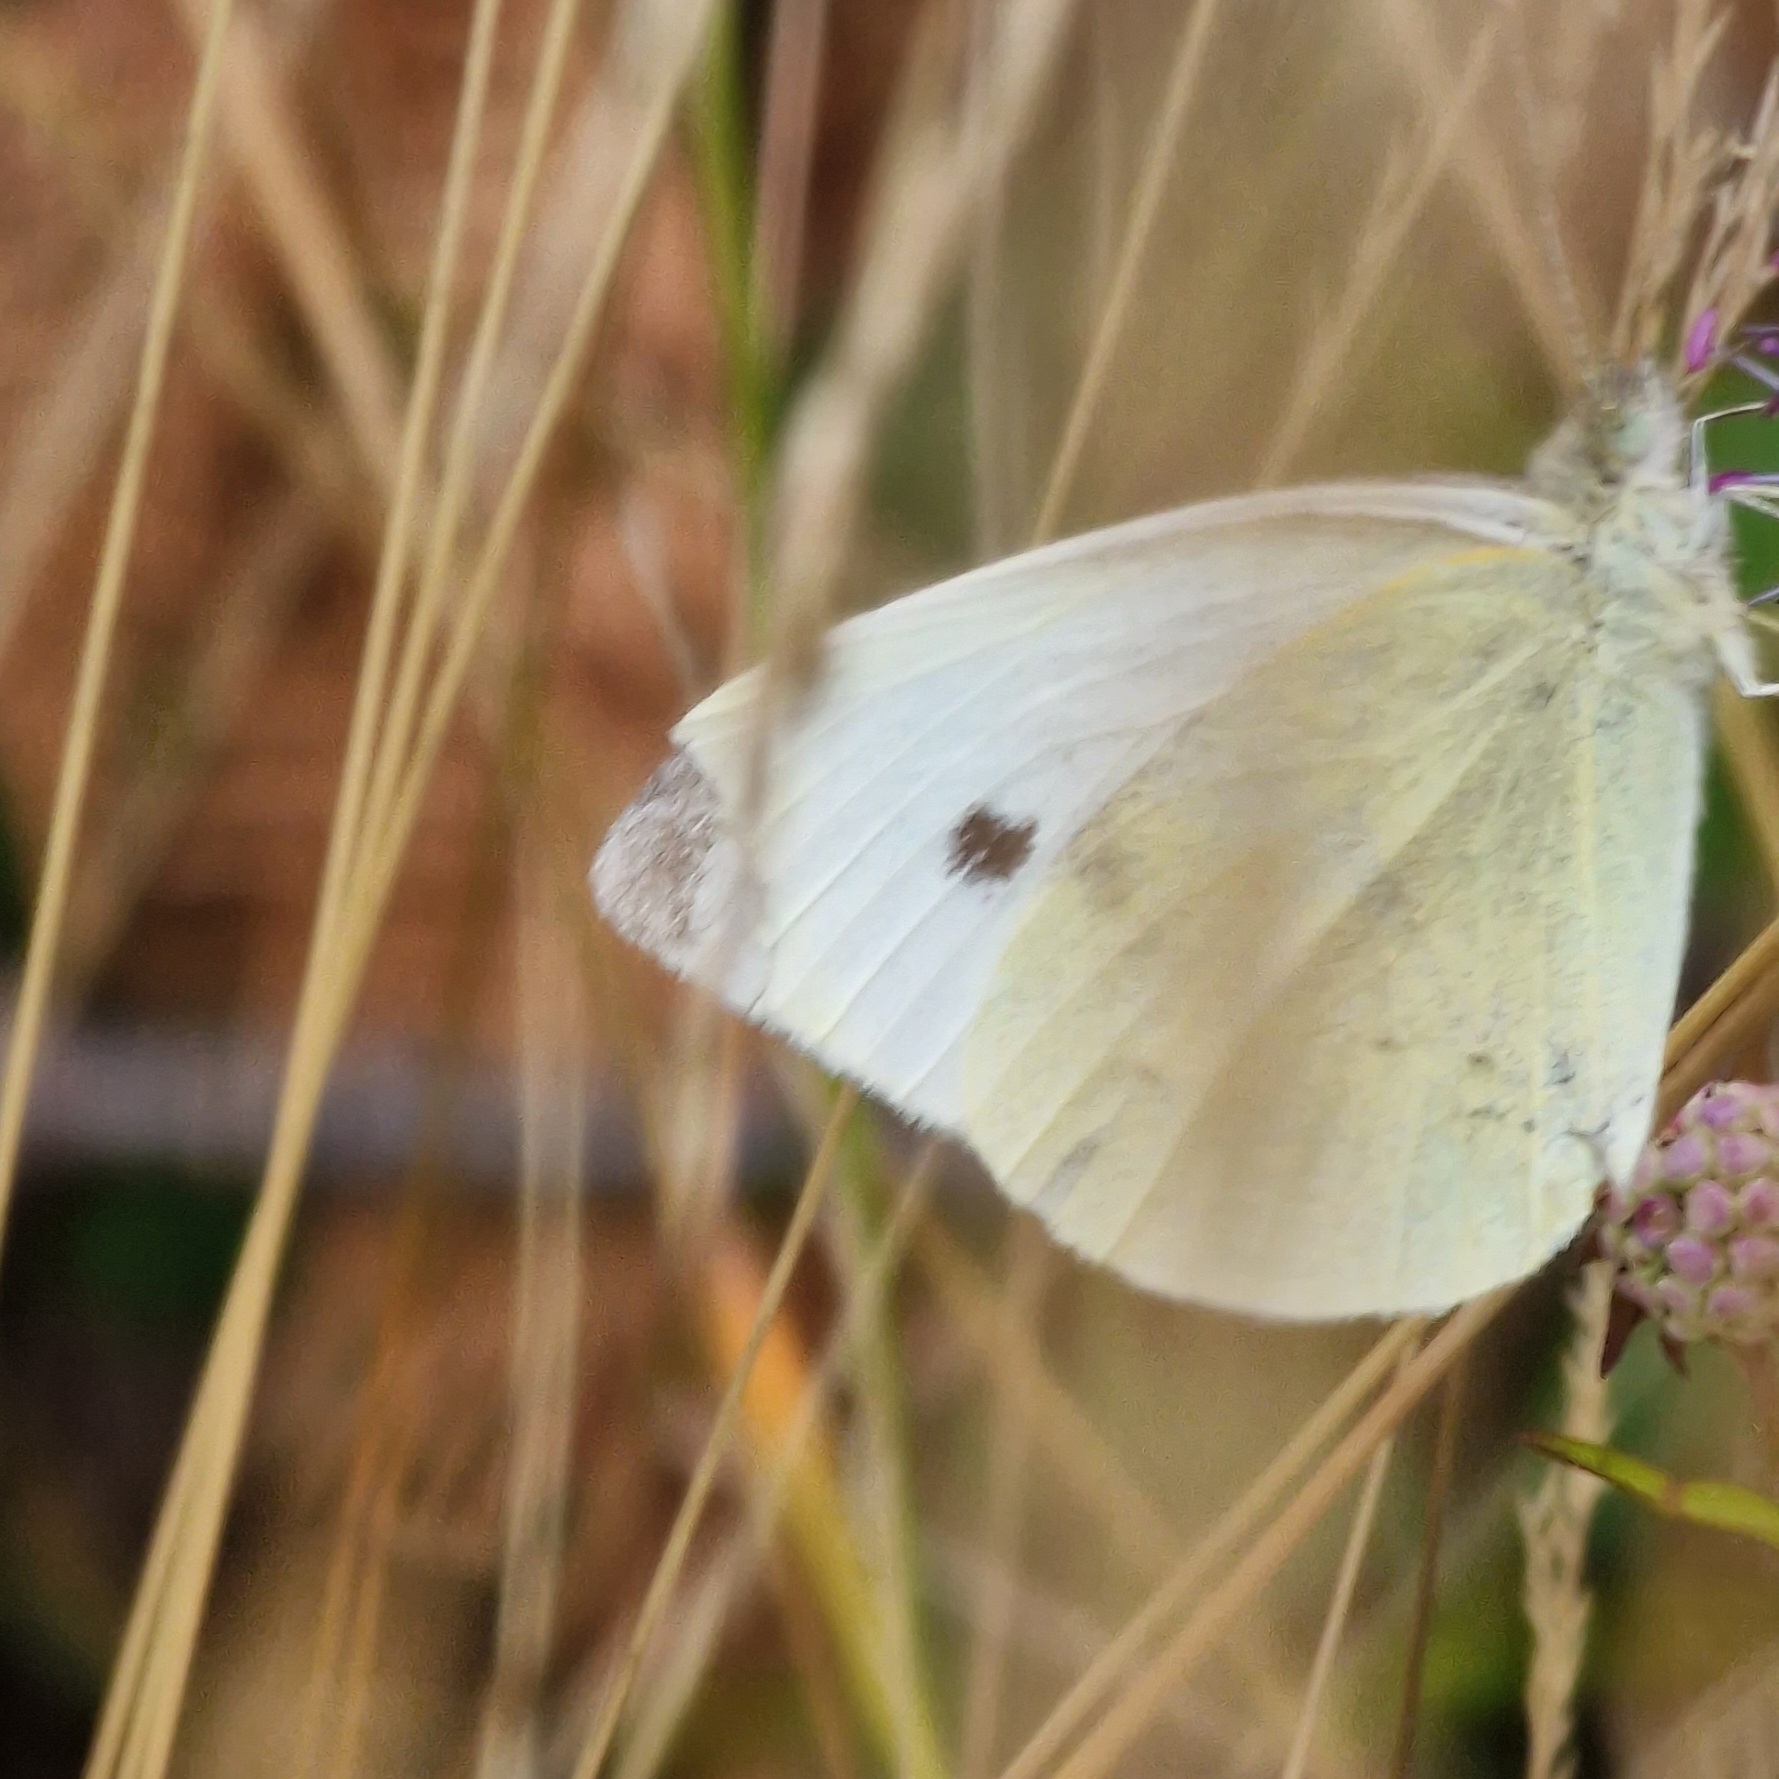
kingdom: Animalia
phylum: Arthropoda
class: Insecta
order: Lepidoptera
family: Pieridae
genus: Pieris
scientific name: Pieris rapae
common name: Small white
